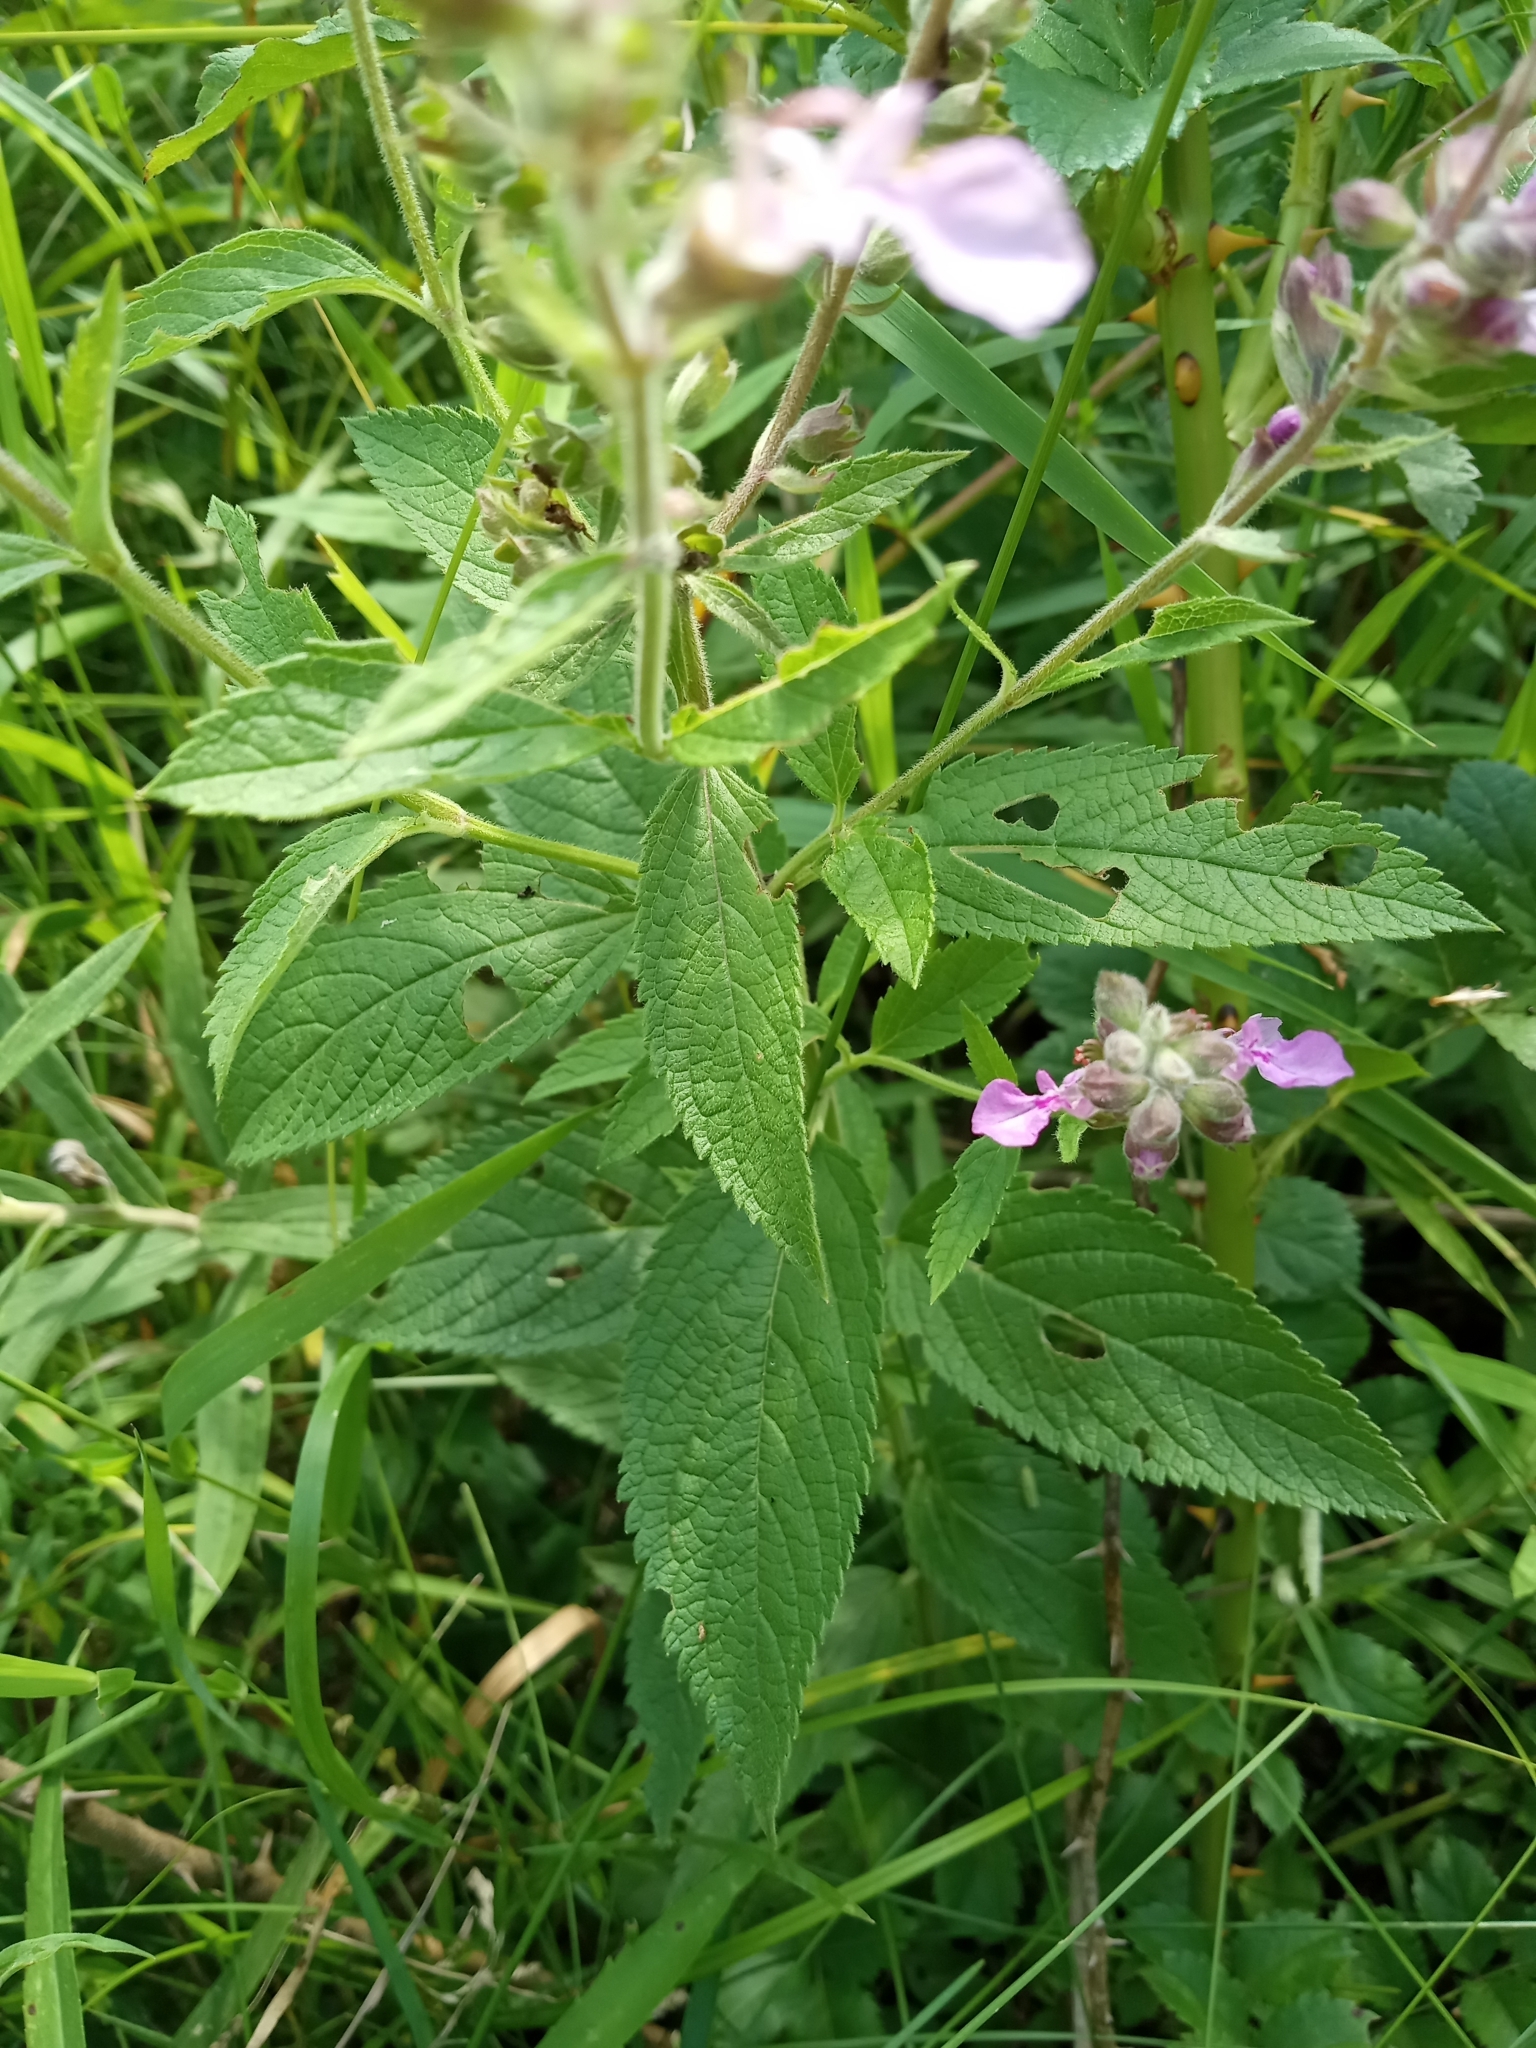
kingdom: Plantae
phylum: Tracheophyta
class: Magnoliopsida
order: Lamiales
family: Lamiaceae
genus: Teucrium
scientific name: Teucrium canadense
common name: American germander
